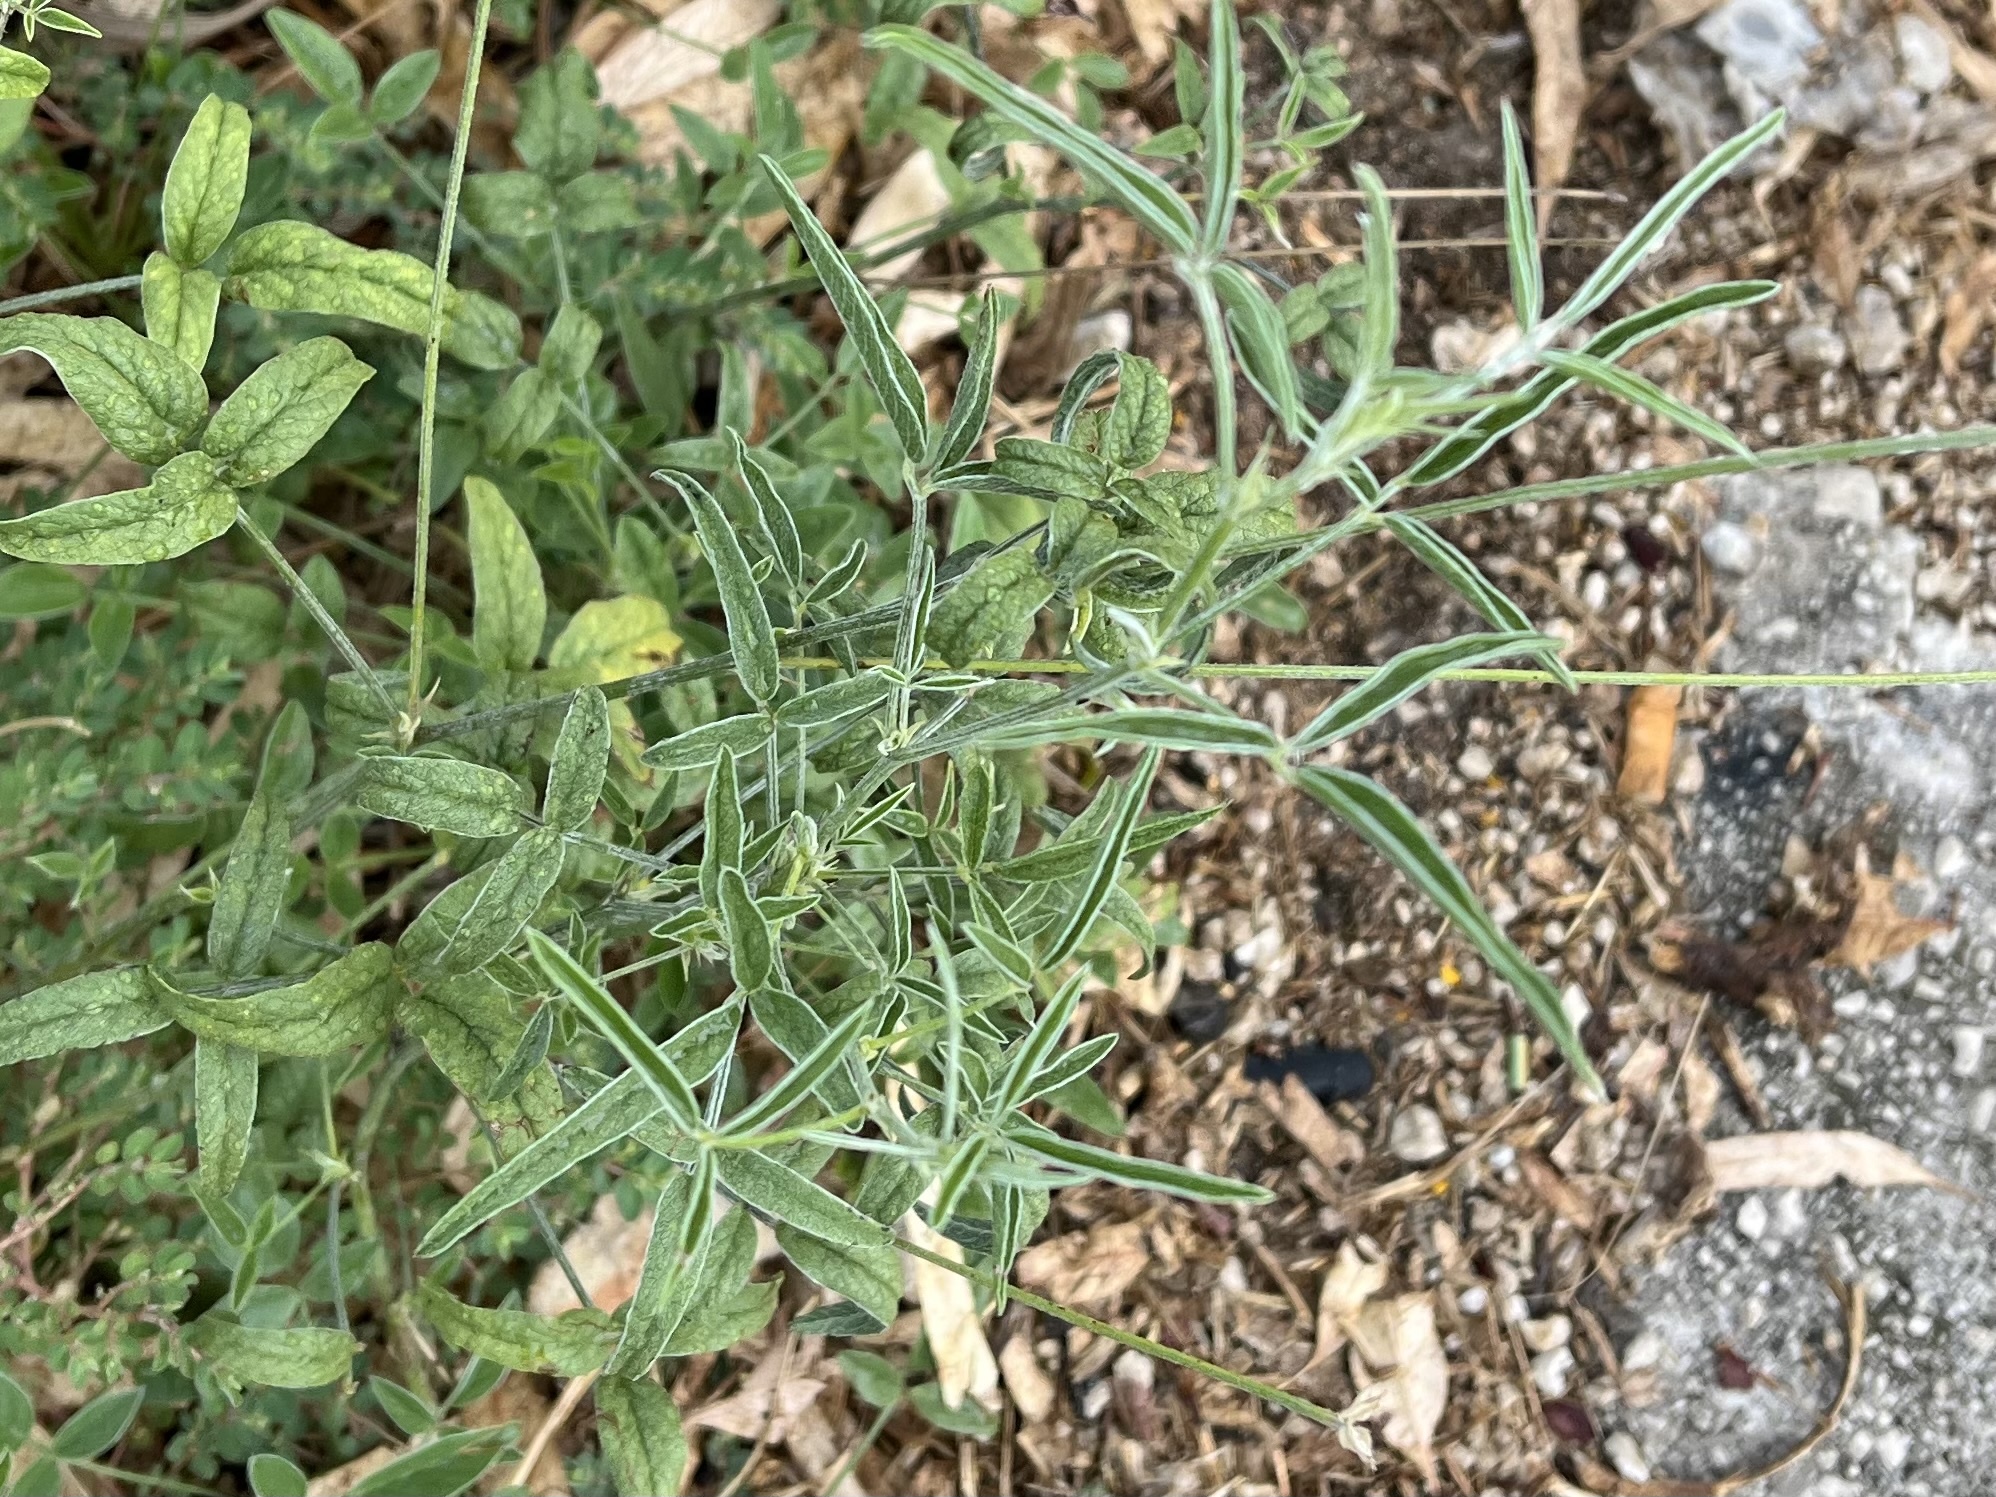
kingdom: Plantae
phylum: Tracheophyta
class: Magnoliopsida
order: Fabales
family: Fabaceae
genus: Bituminaria
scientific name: Bituminaria bituminosa
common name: Arabian pea
